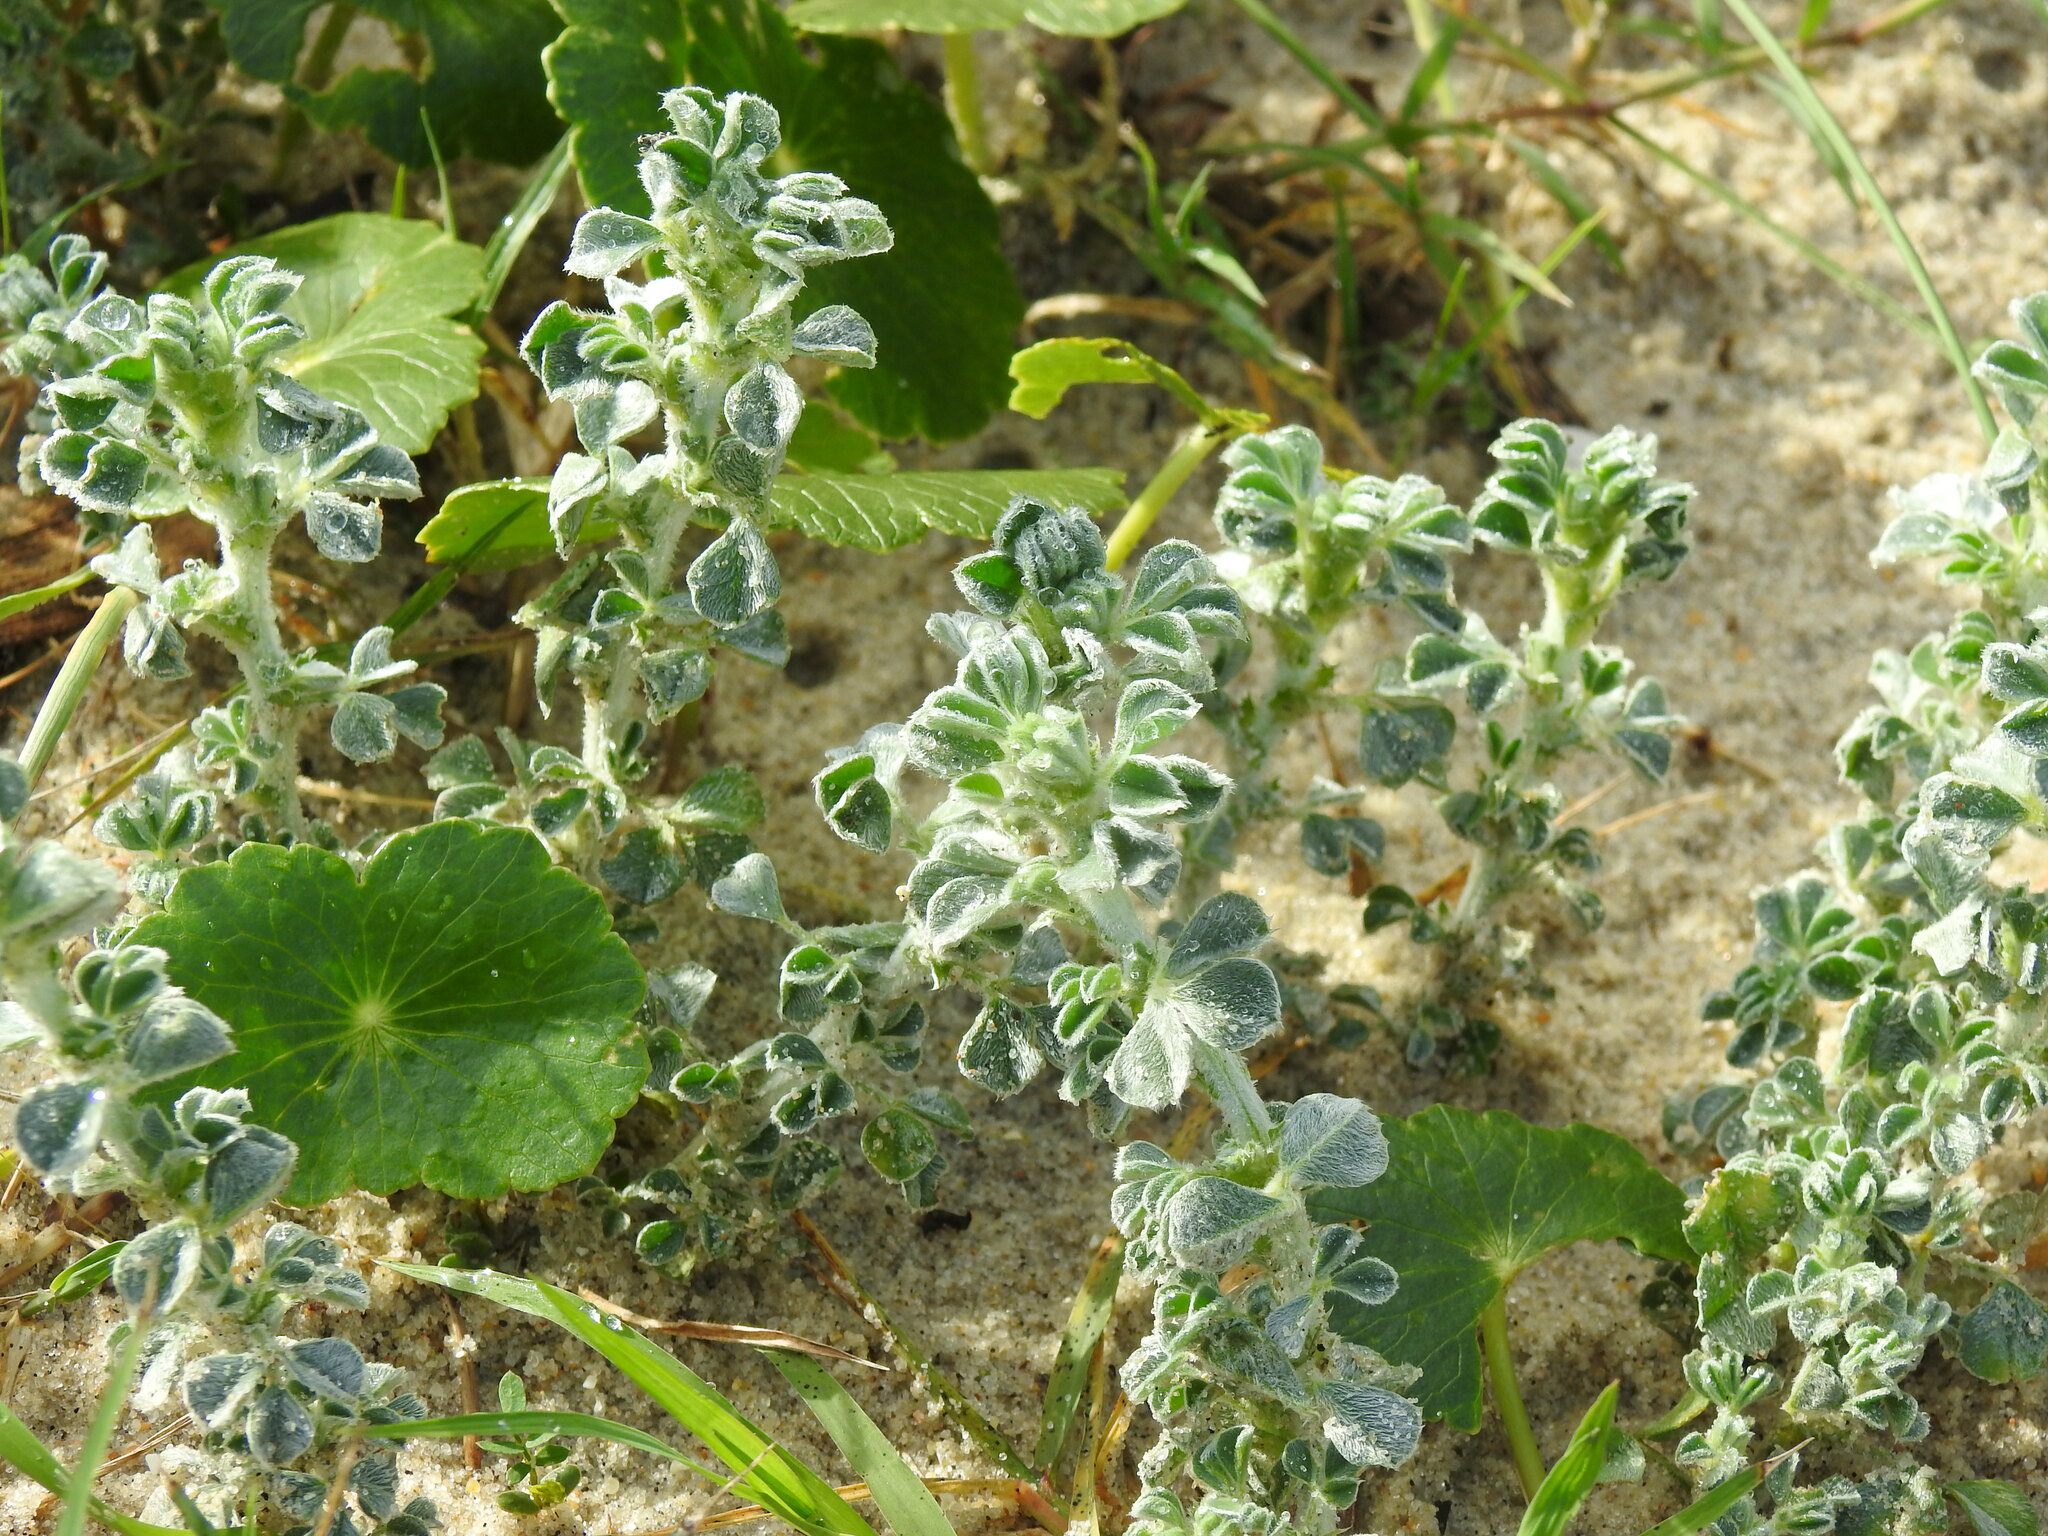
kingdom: Plantae
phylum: Tracheophyta
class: Magnoliopsida
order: Fabales
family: Fabaceae
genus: Medicago
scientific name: Medicago marina
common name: Sea medick
